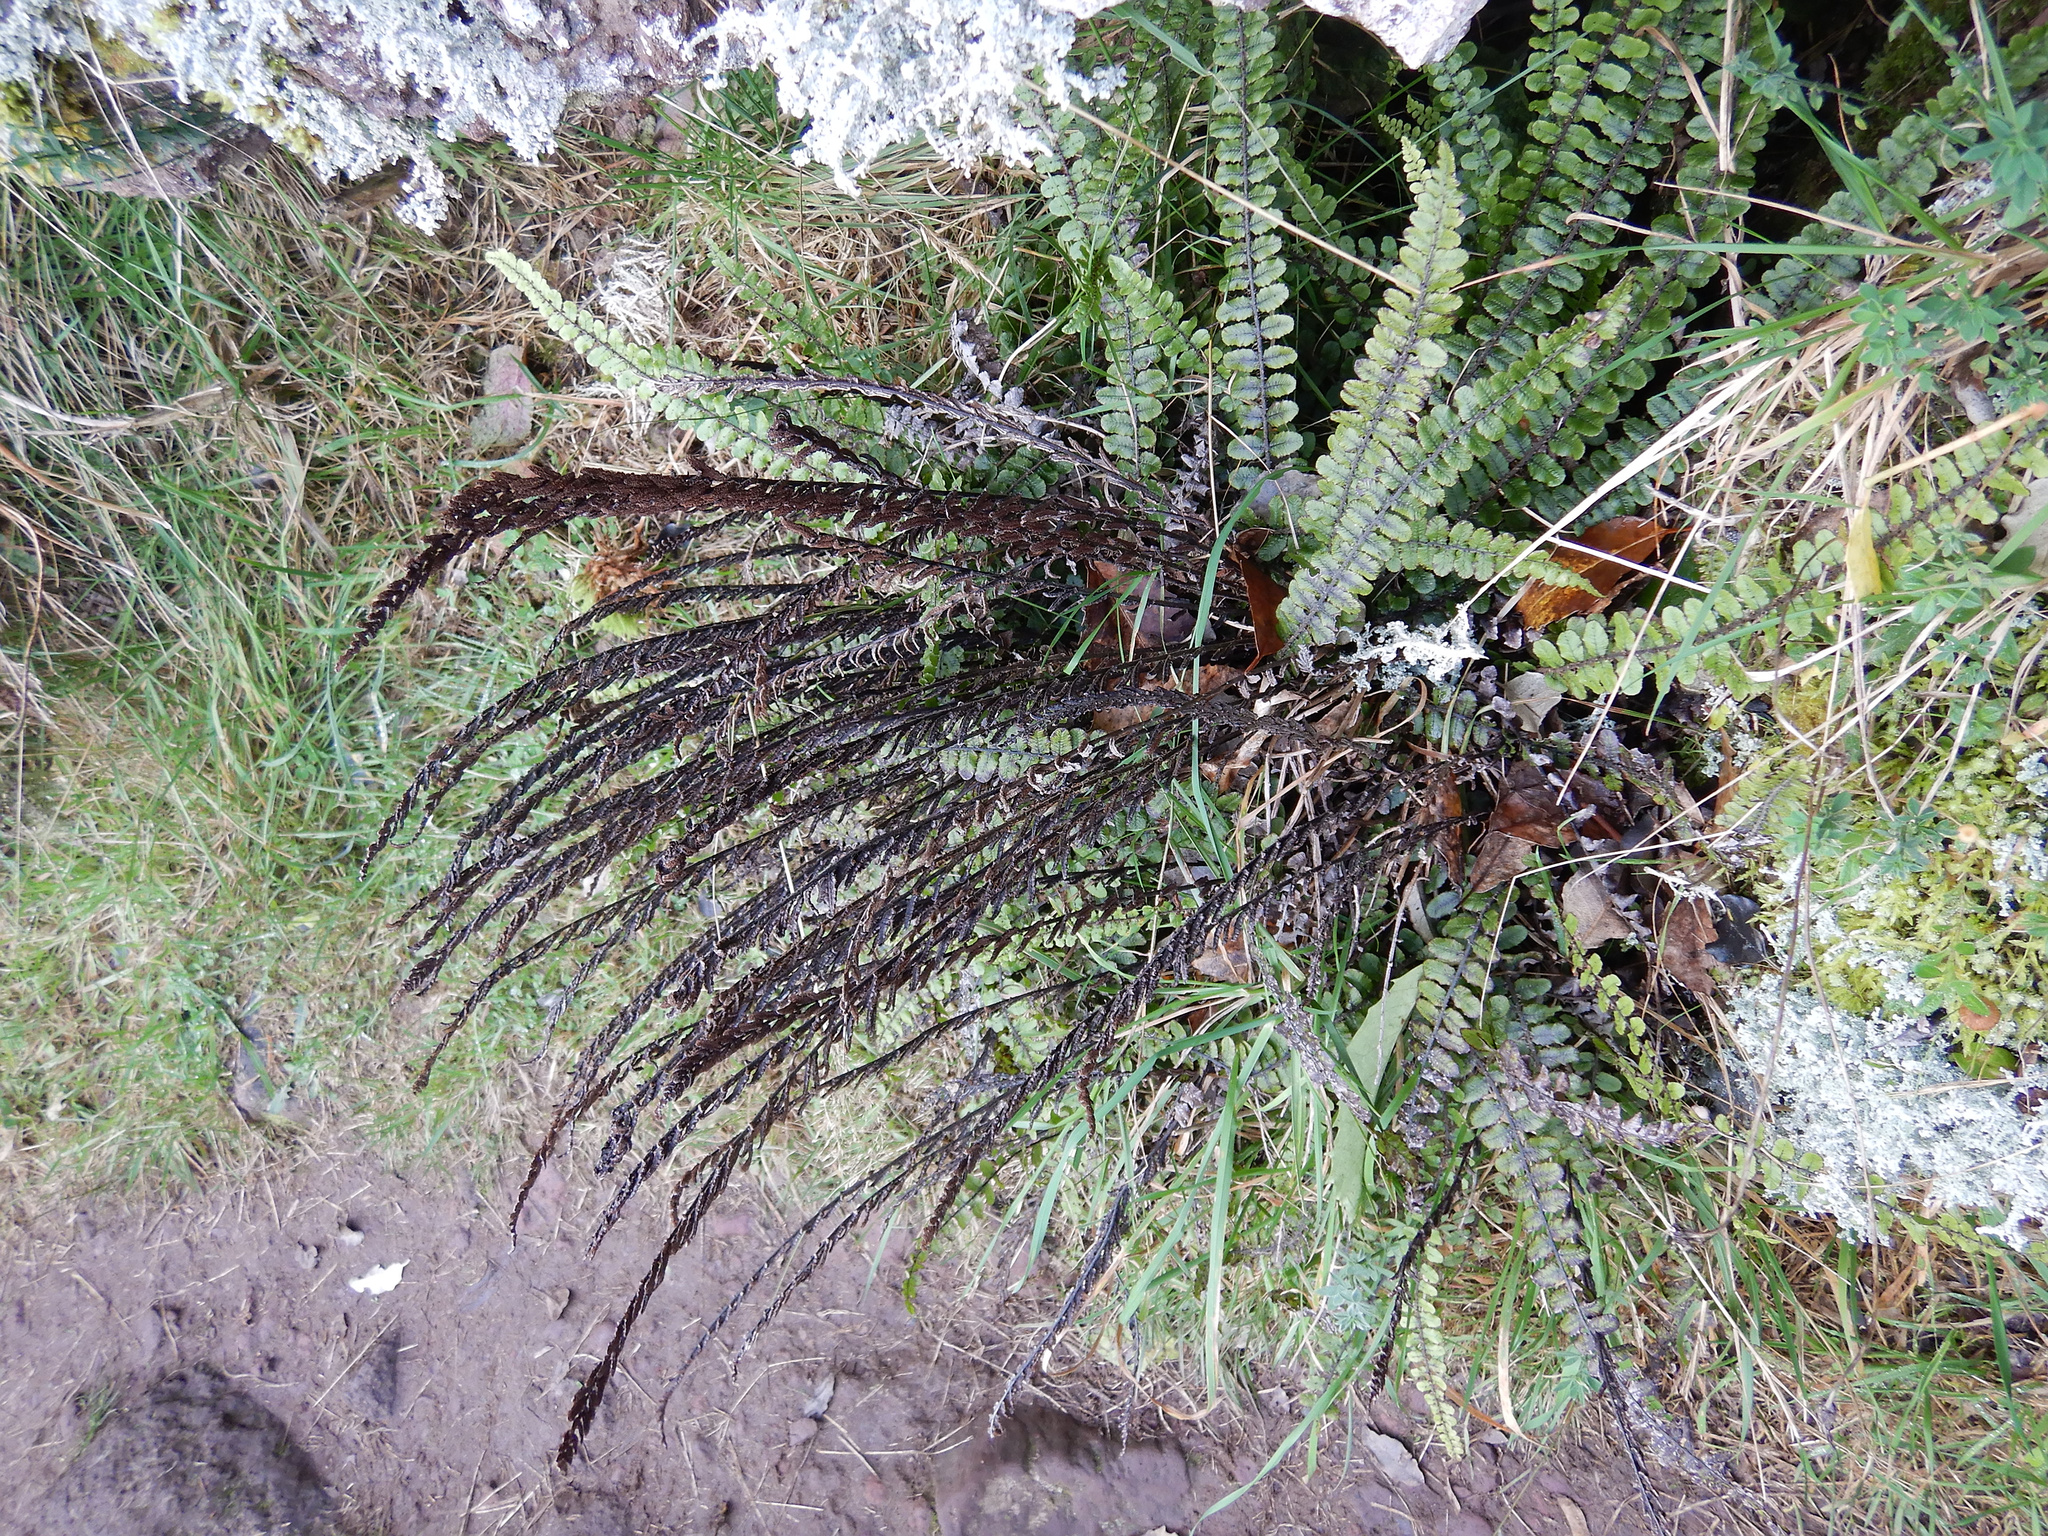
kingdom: Plantae
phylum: Tracheophyta
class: Polypodiopsida
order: Polypodiales
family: Blechnaceae
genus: Cranfillia
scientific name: Cranfillia fluviatilis
